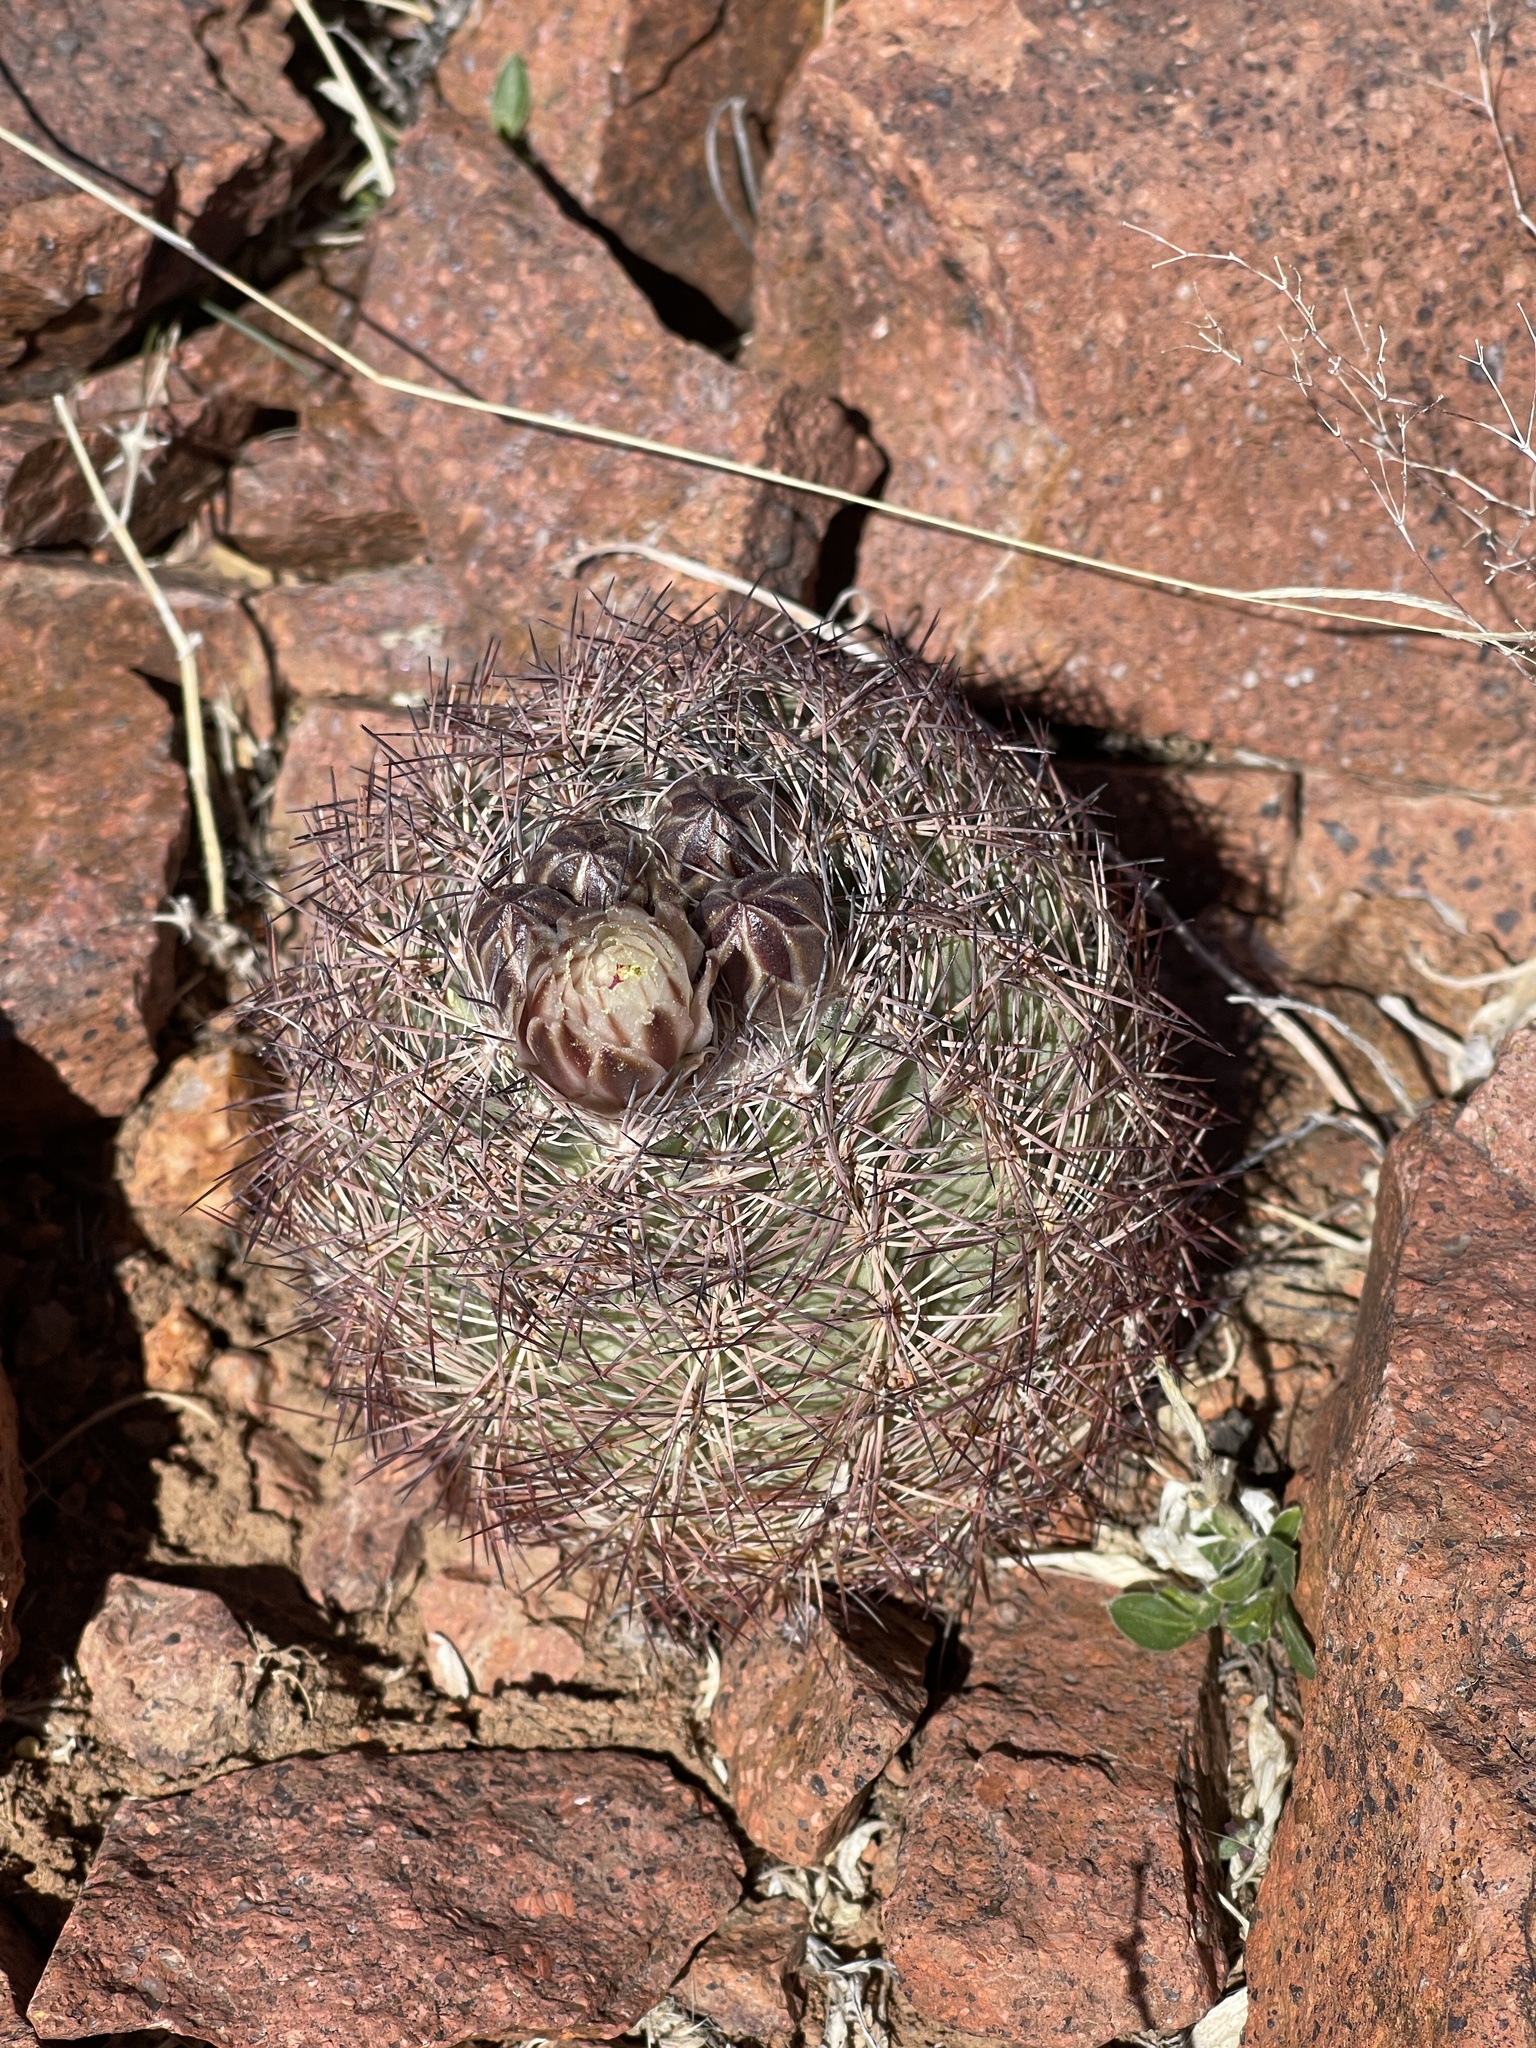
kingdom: Plantae
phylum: Tracheophyta
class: Magnoliopsida
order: Caryophyllales
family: Cactaceae
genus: Sclerocactus
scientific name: Sclerocactus intertextus
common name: White fish-hook cactus
